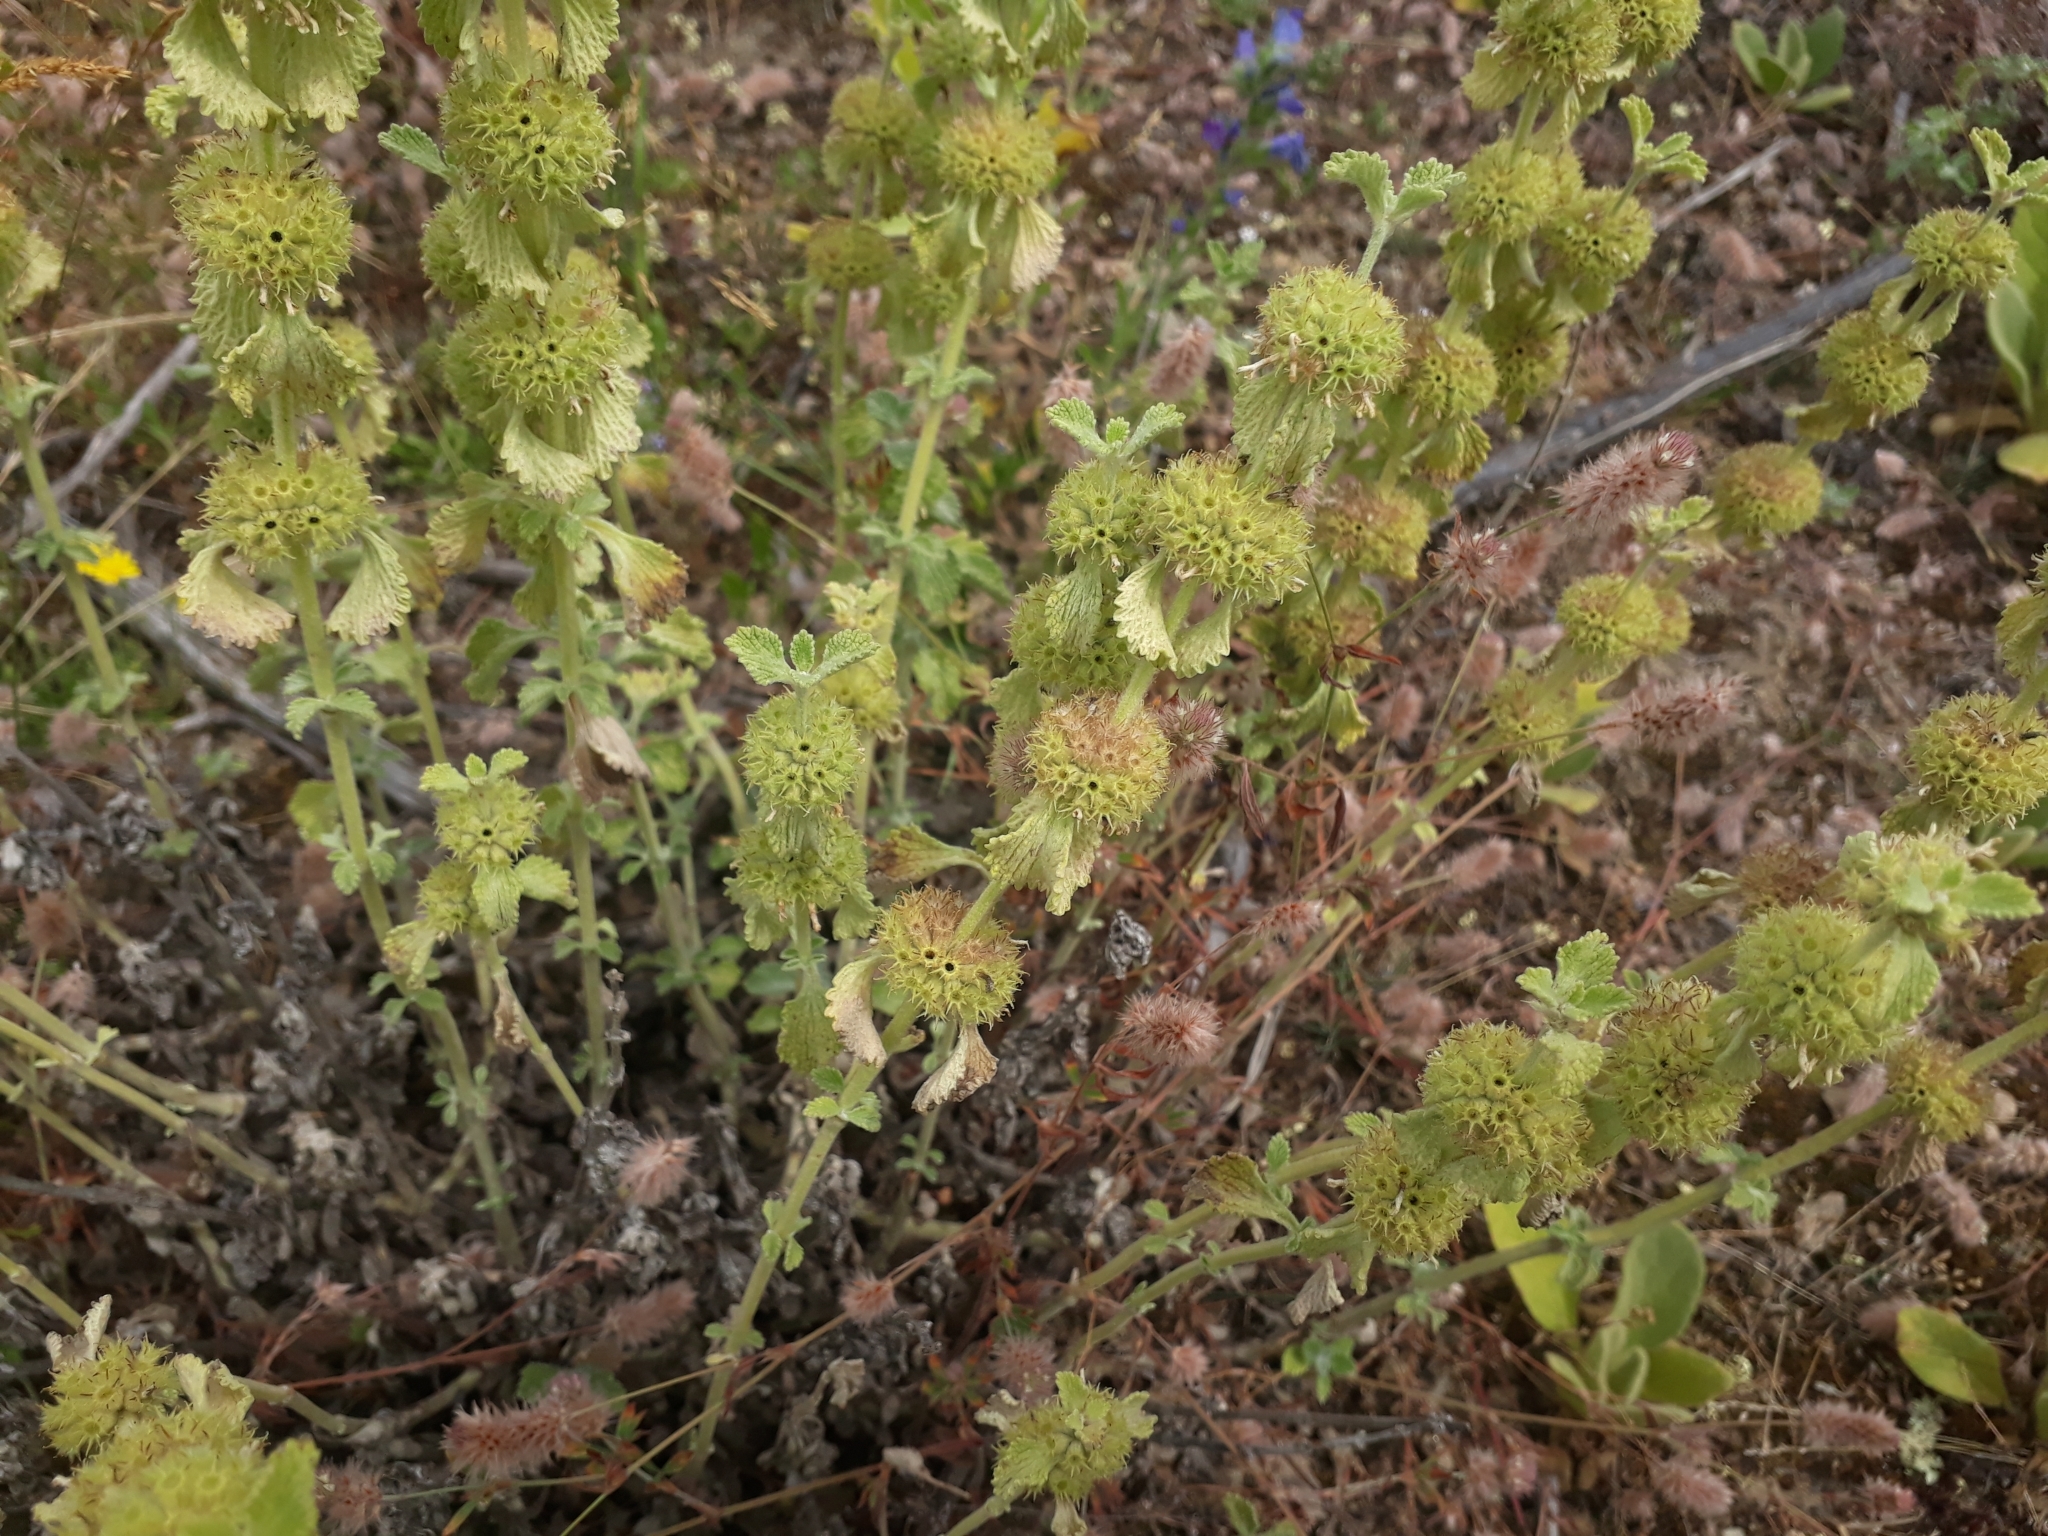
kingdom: Plantae
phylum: Tracheophyta
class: Magnoliopsida
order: Lamiales
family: Lamiaceae
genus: Marrubium
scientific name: Marrubium vulgare
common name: Horehound
